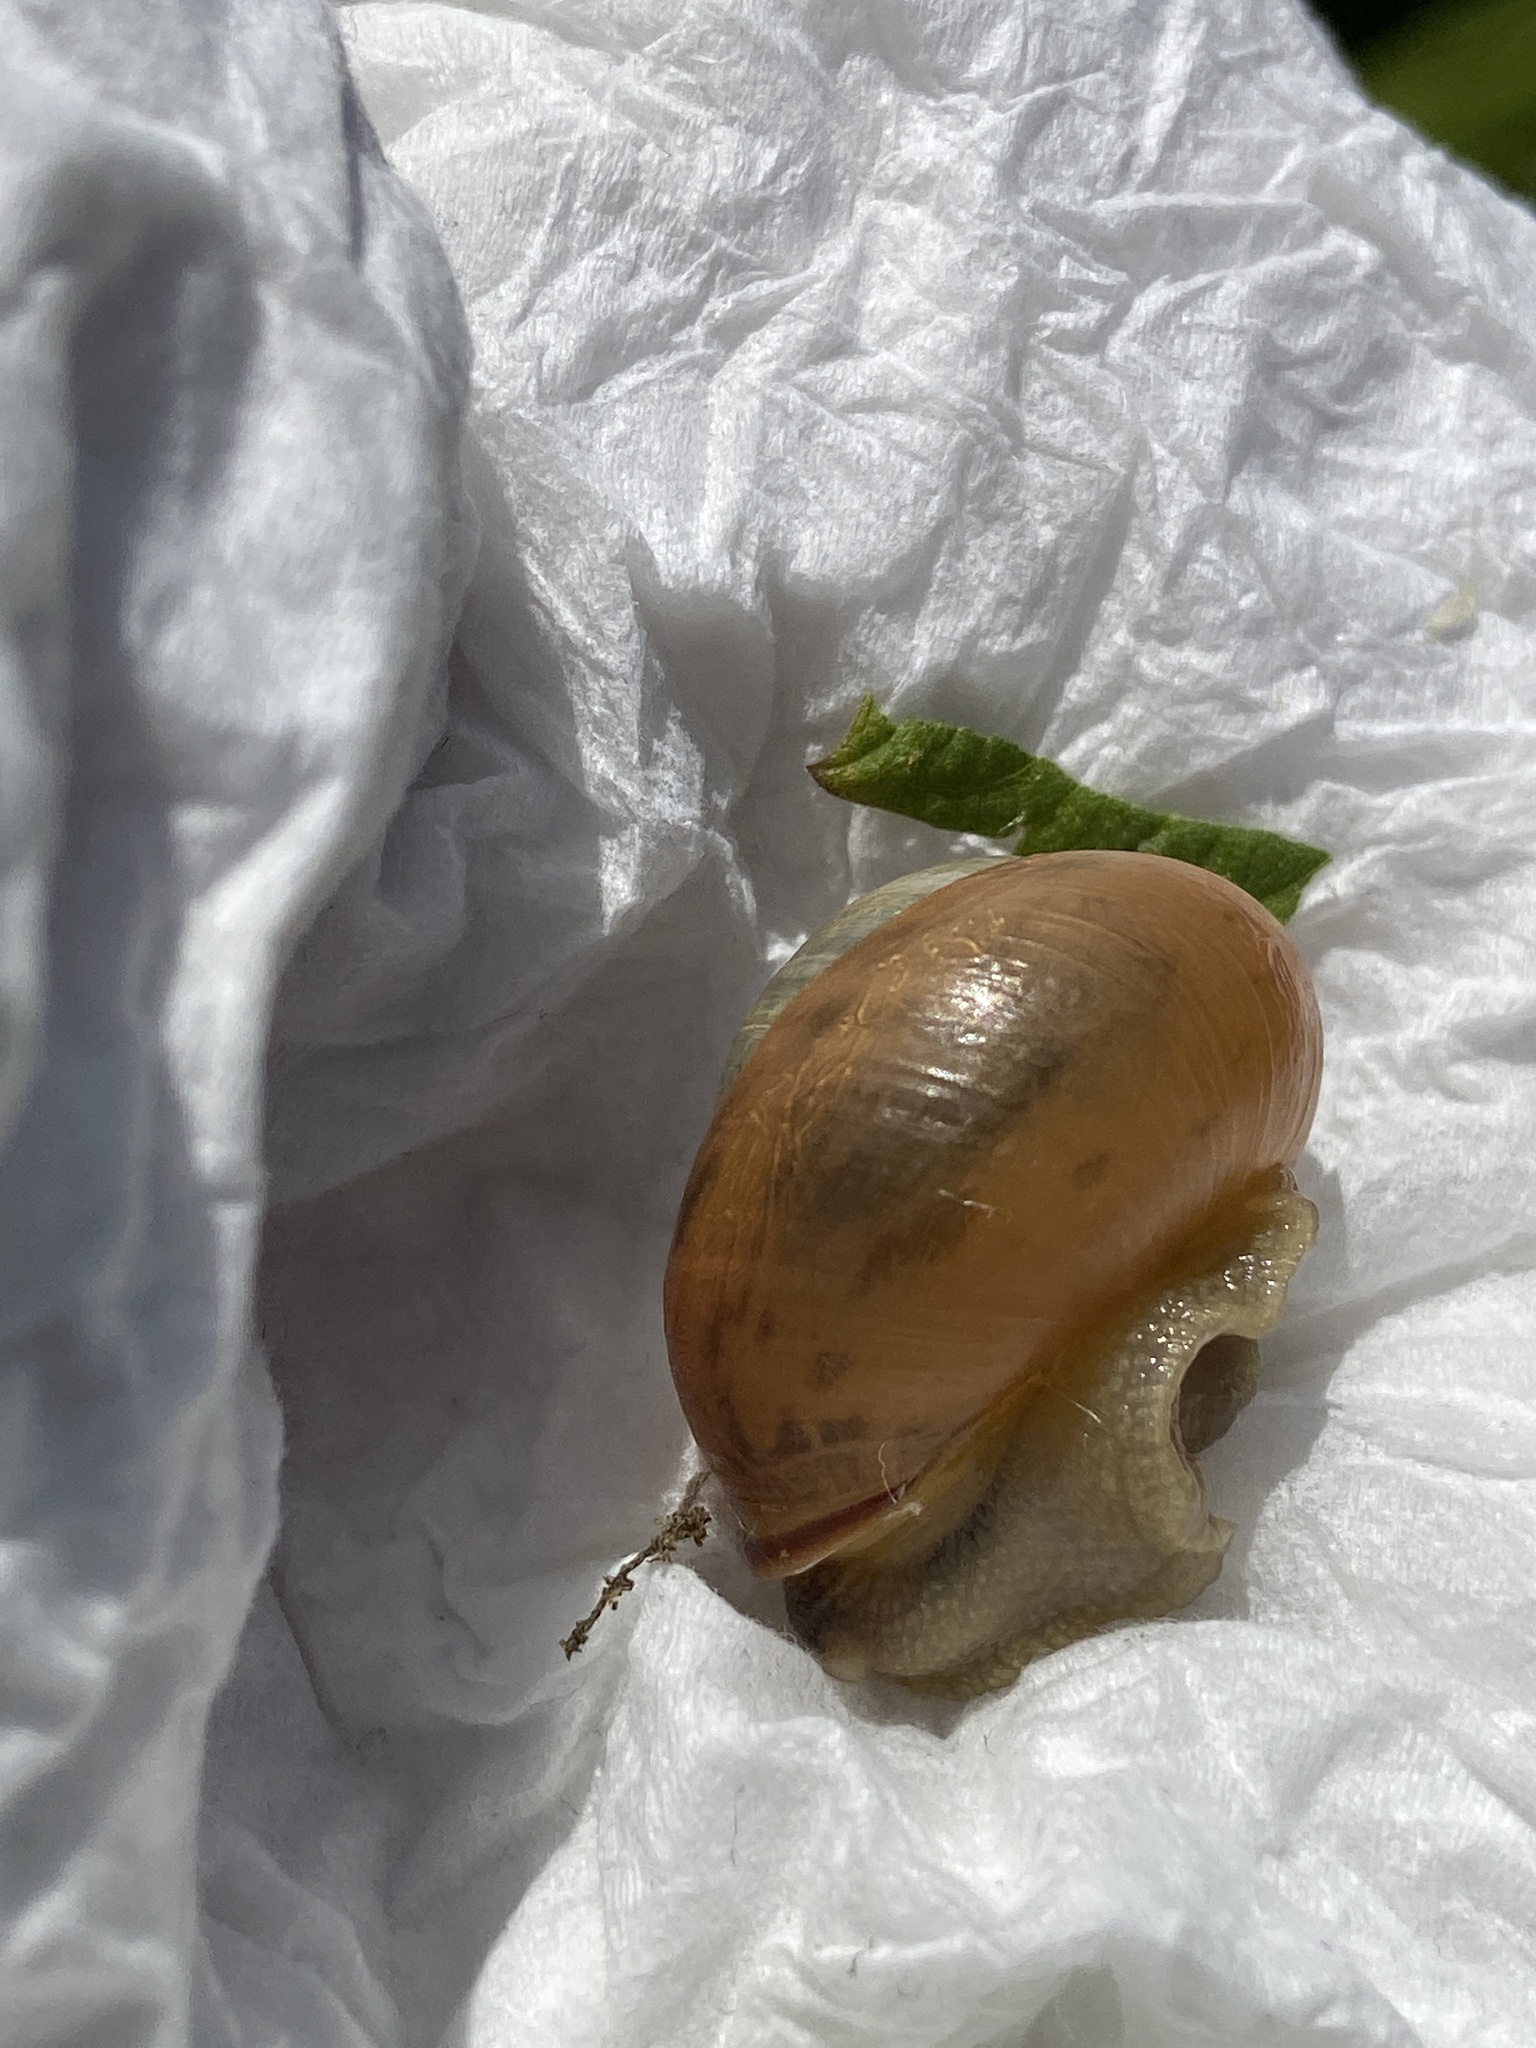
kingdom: Animalia
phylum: Mollusca
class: Gastropoda
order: Stylommatophora
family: Helicidae
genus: Cepaea
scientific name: Cepaea nemoralis
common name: Grovesnail
